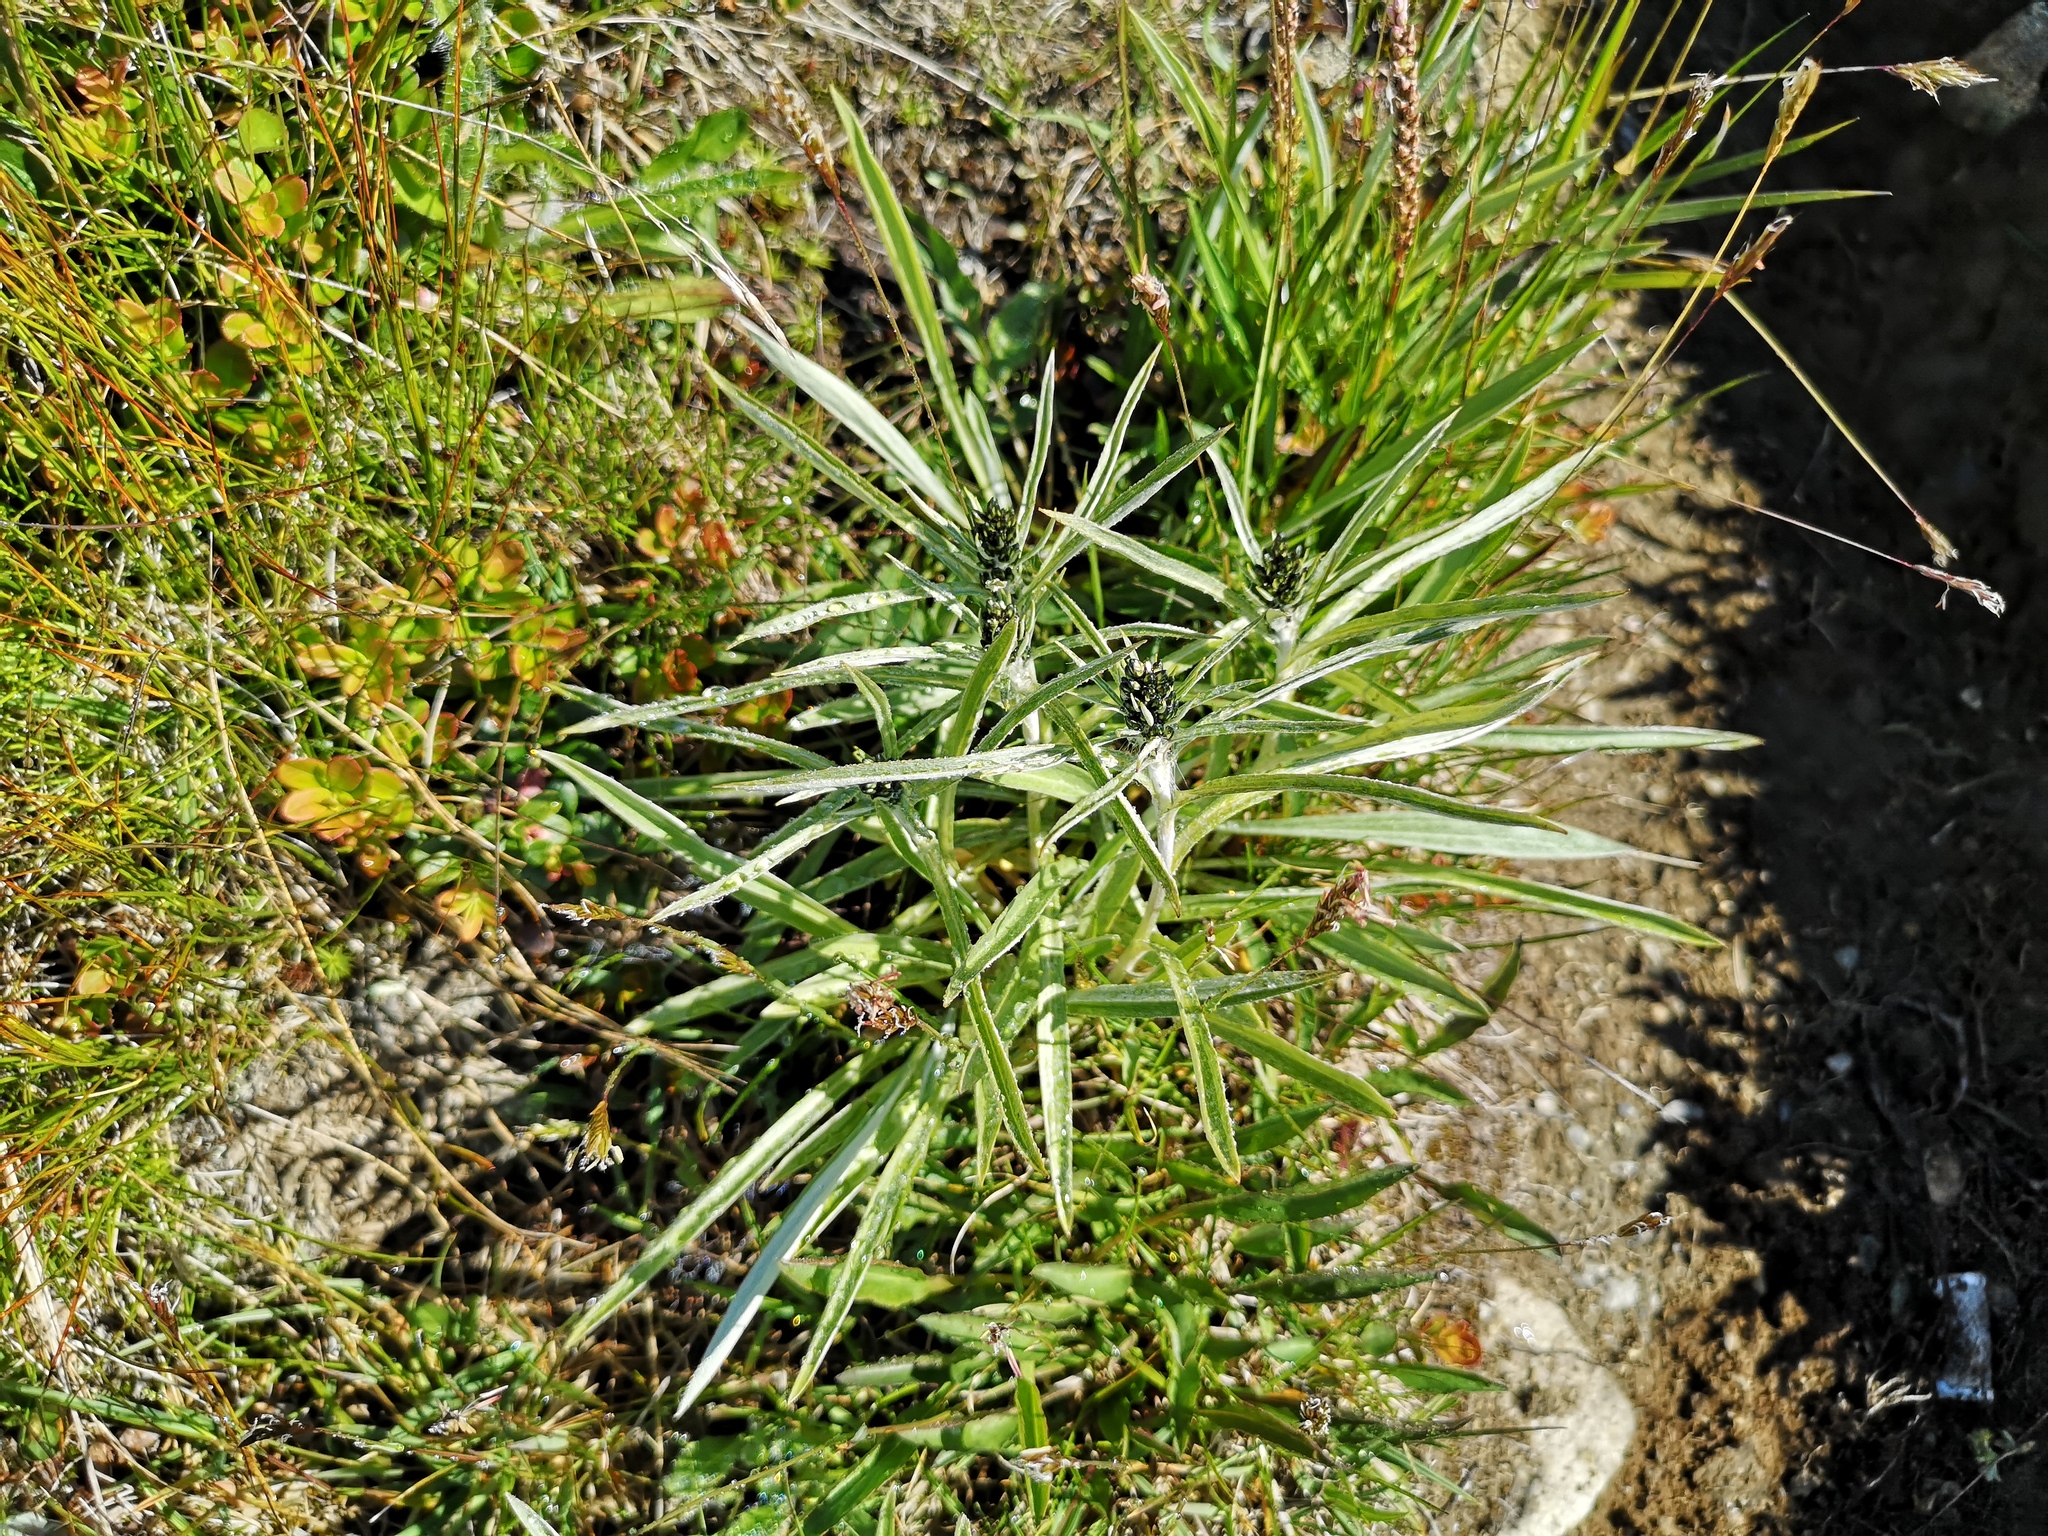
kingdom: Plantae
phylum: Tracheophyta
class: Magnoliopsida
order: Asterales
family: Asteraceae
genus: Omalotheca
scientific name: Omalotheca norvegica
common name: Norwegian arctic-cudweed
